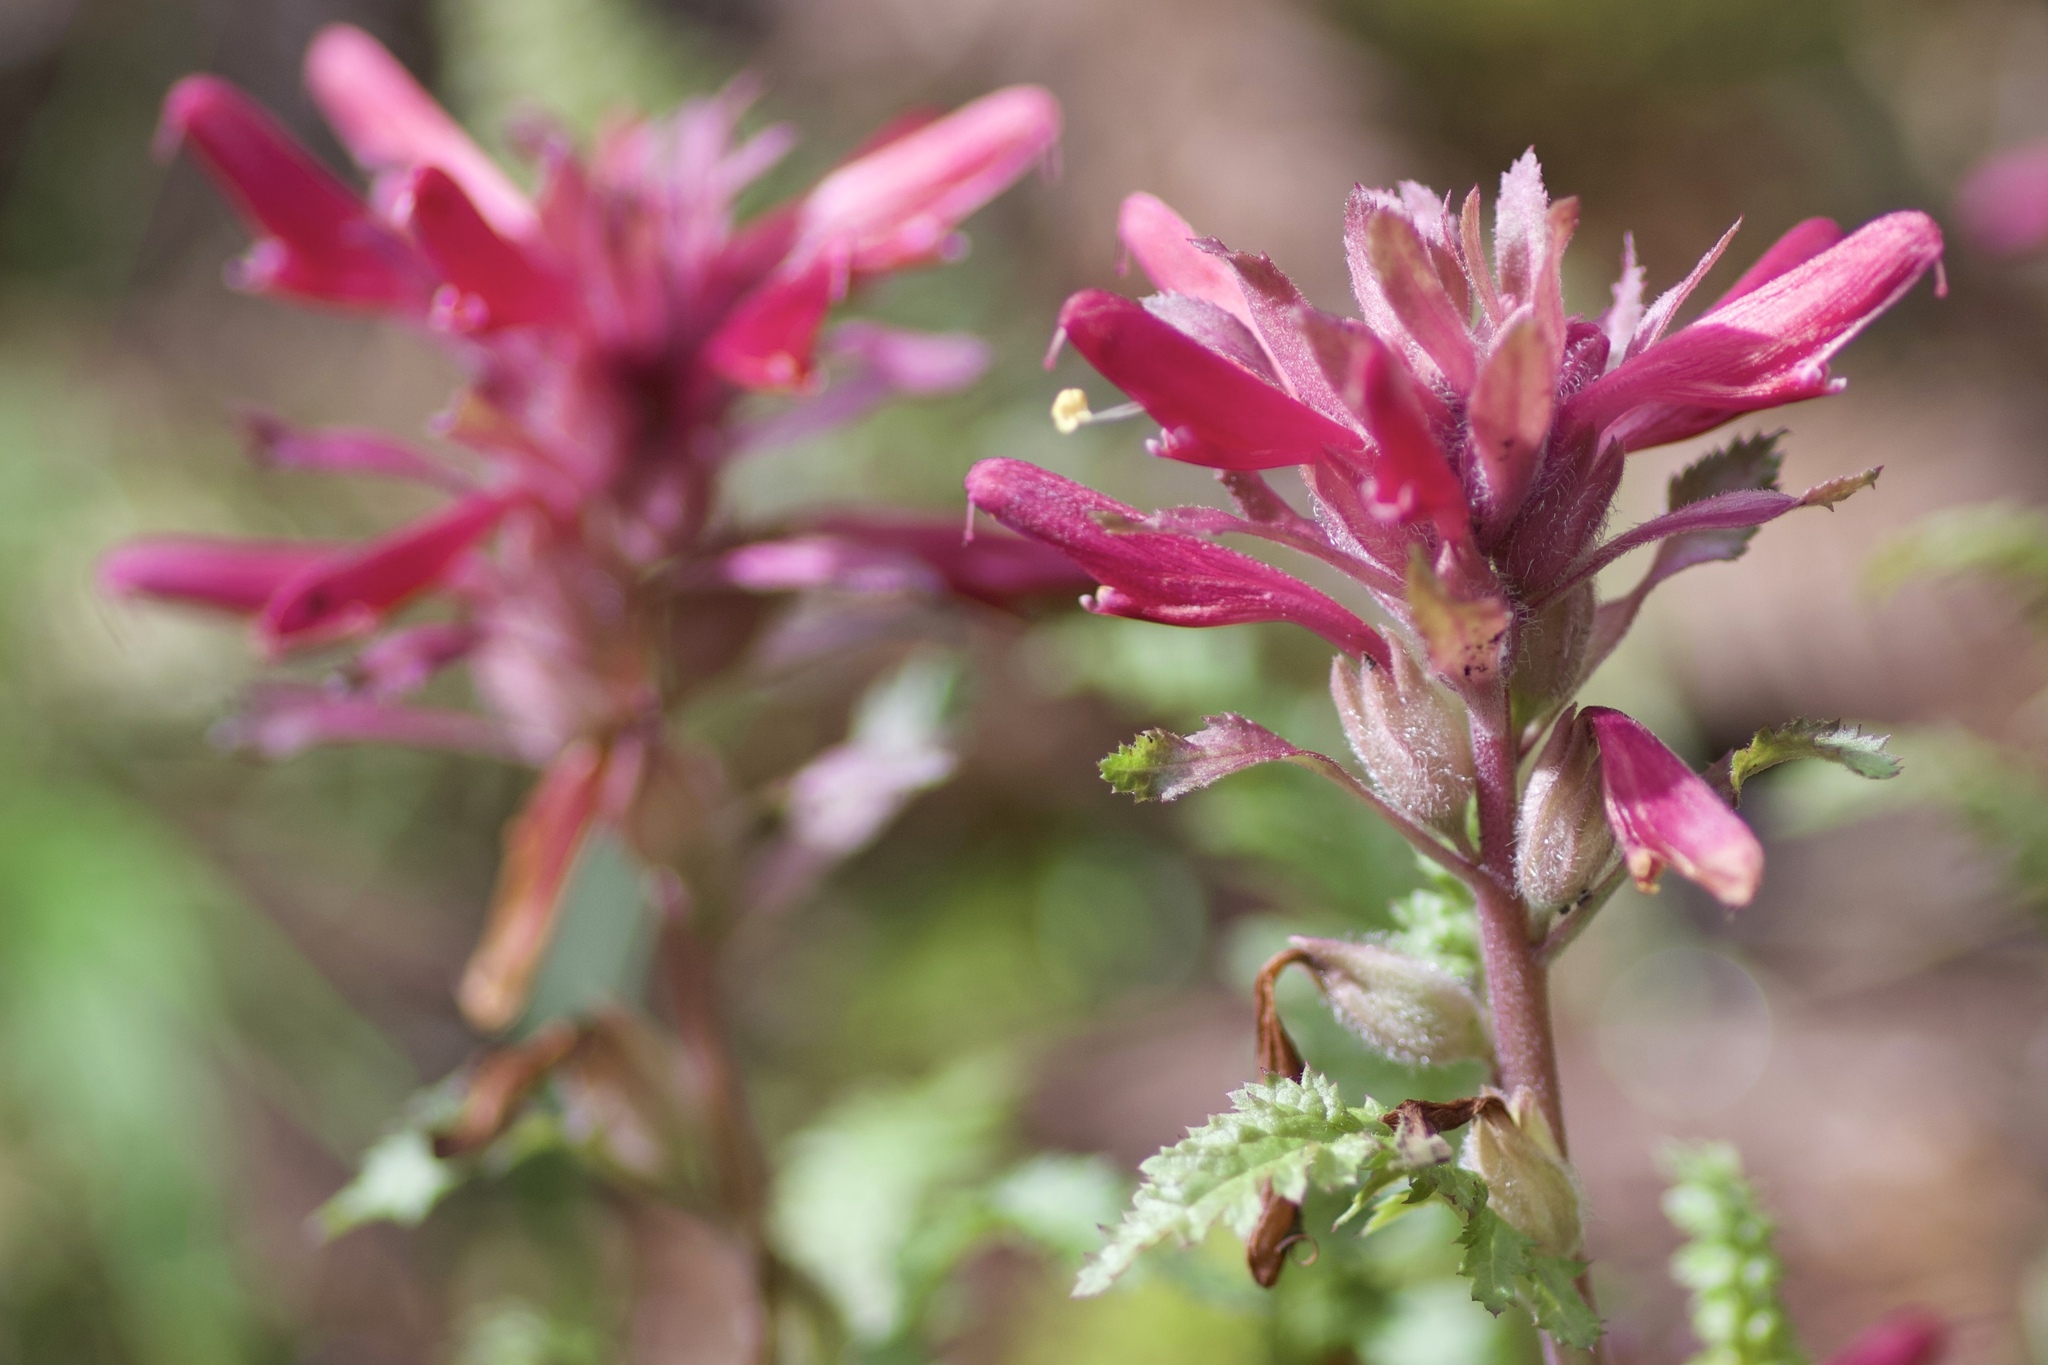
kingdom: Plantae
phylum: Tracheophyta
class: Magnoliopsida
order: Lamiales
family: Orobanchaceae
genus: Pedicularis
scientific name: Pedicularis densiflora
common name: Indian warrior
